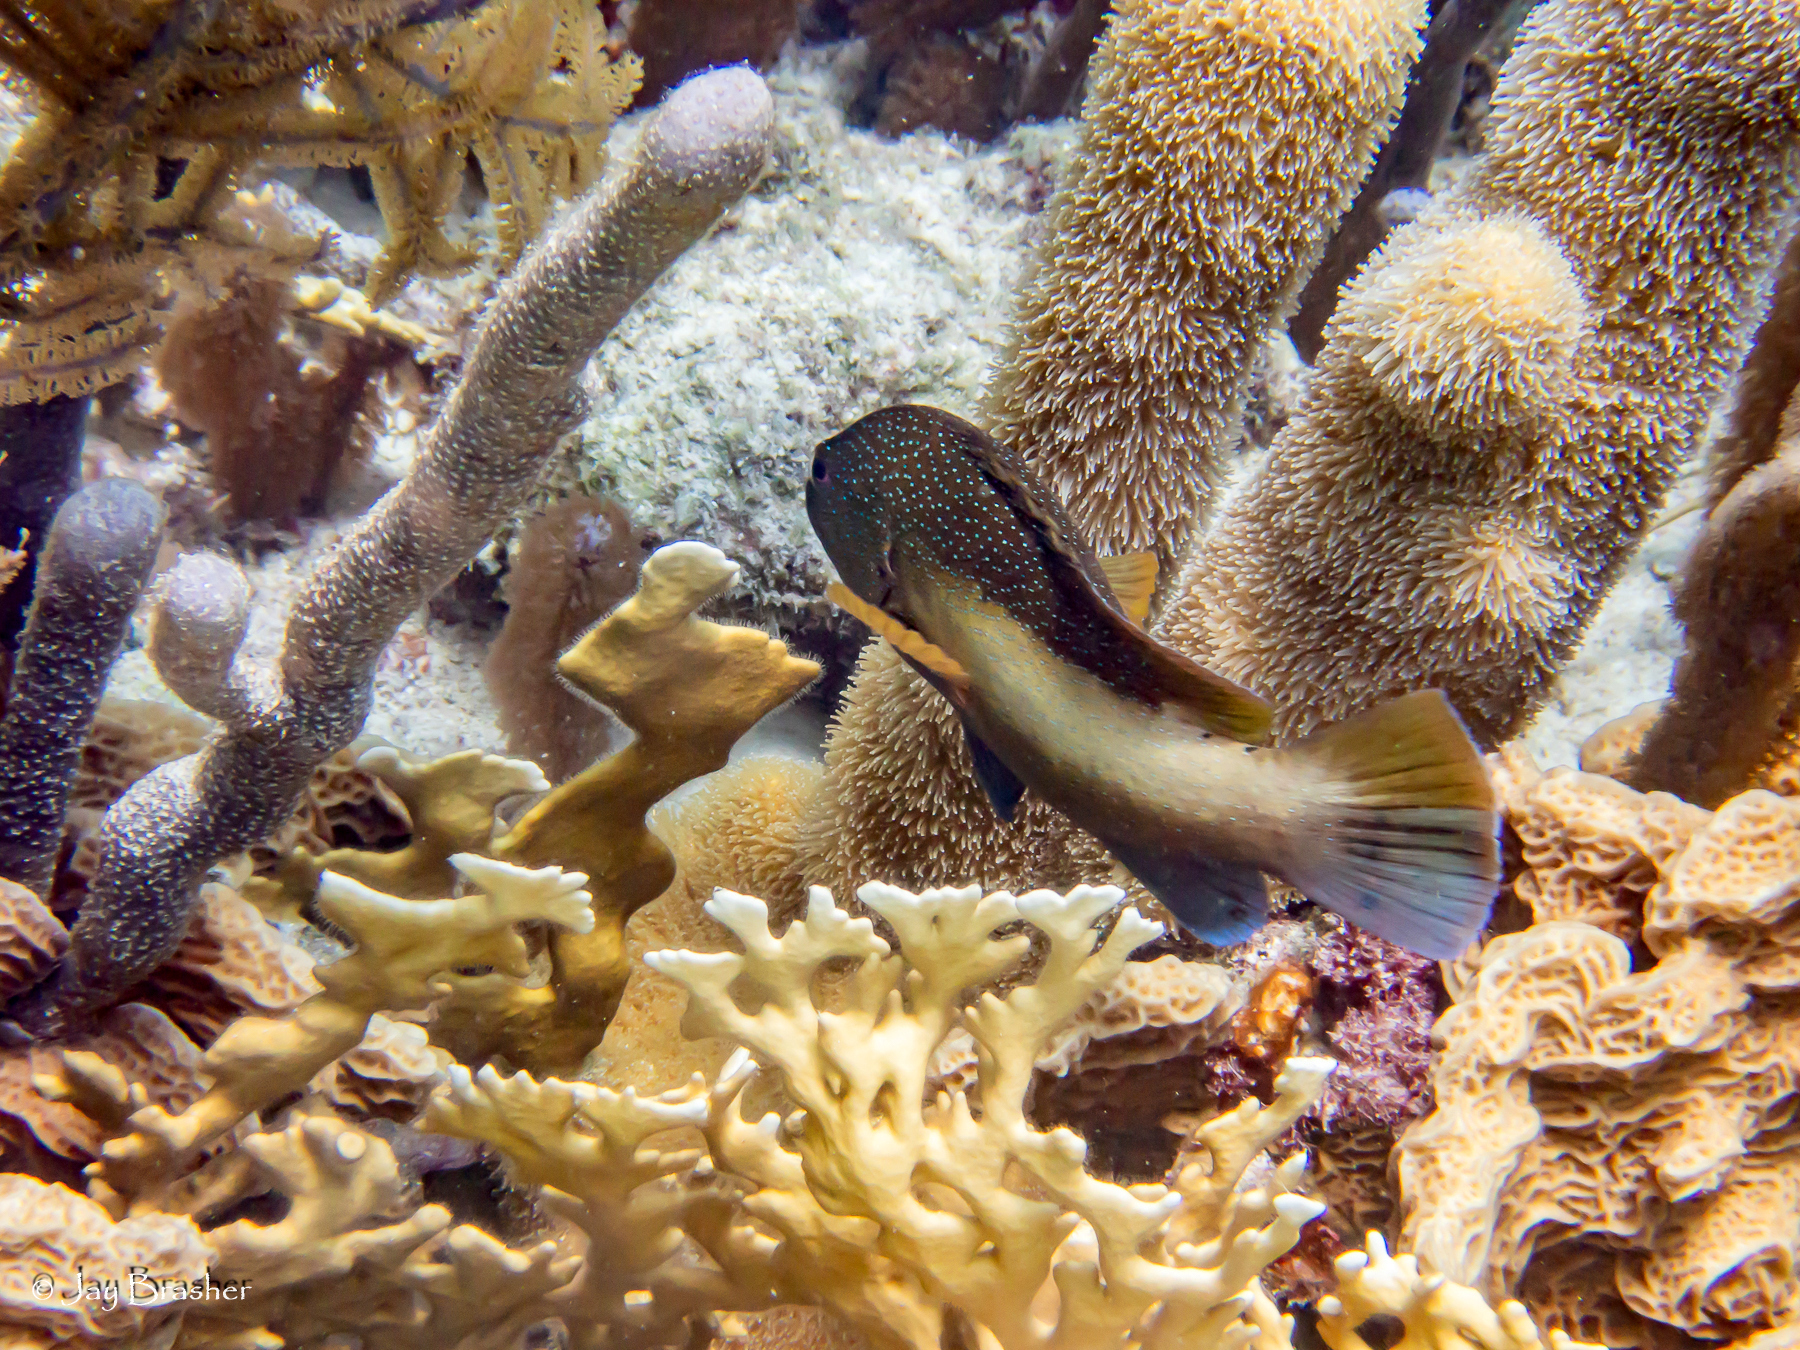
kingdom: Animalia
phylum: Cnidaria
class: Anthozoa
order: Scleractinia
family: Meandrinidae
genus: Dendrogyra
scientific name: Dendrogyra cylindrus
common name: Pillar coral
